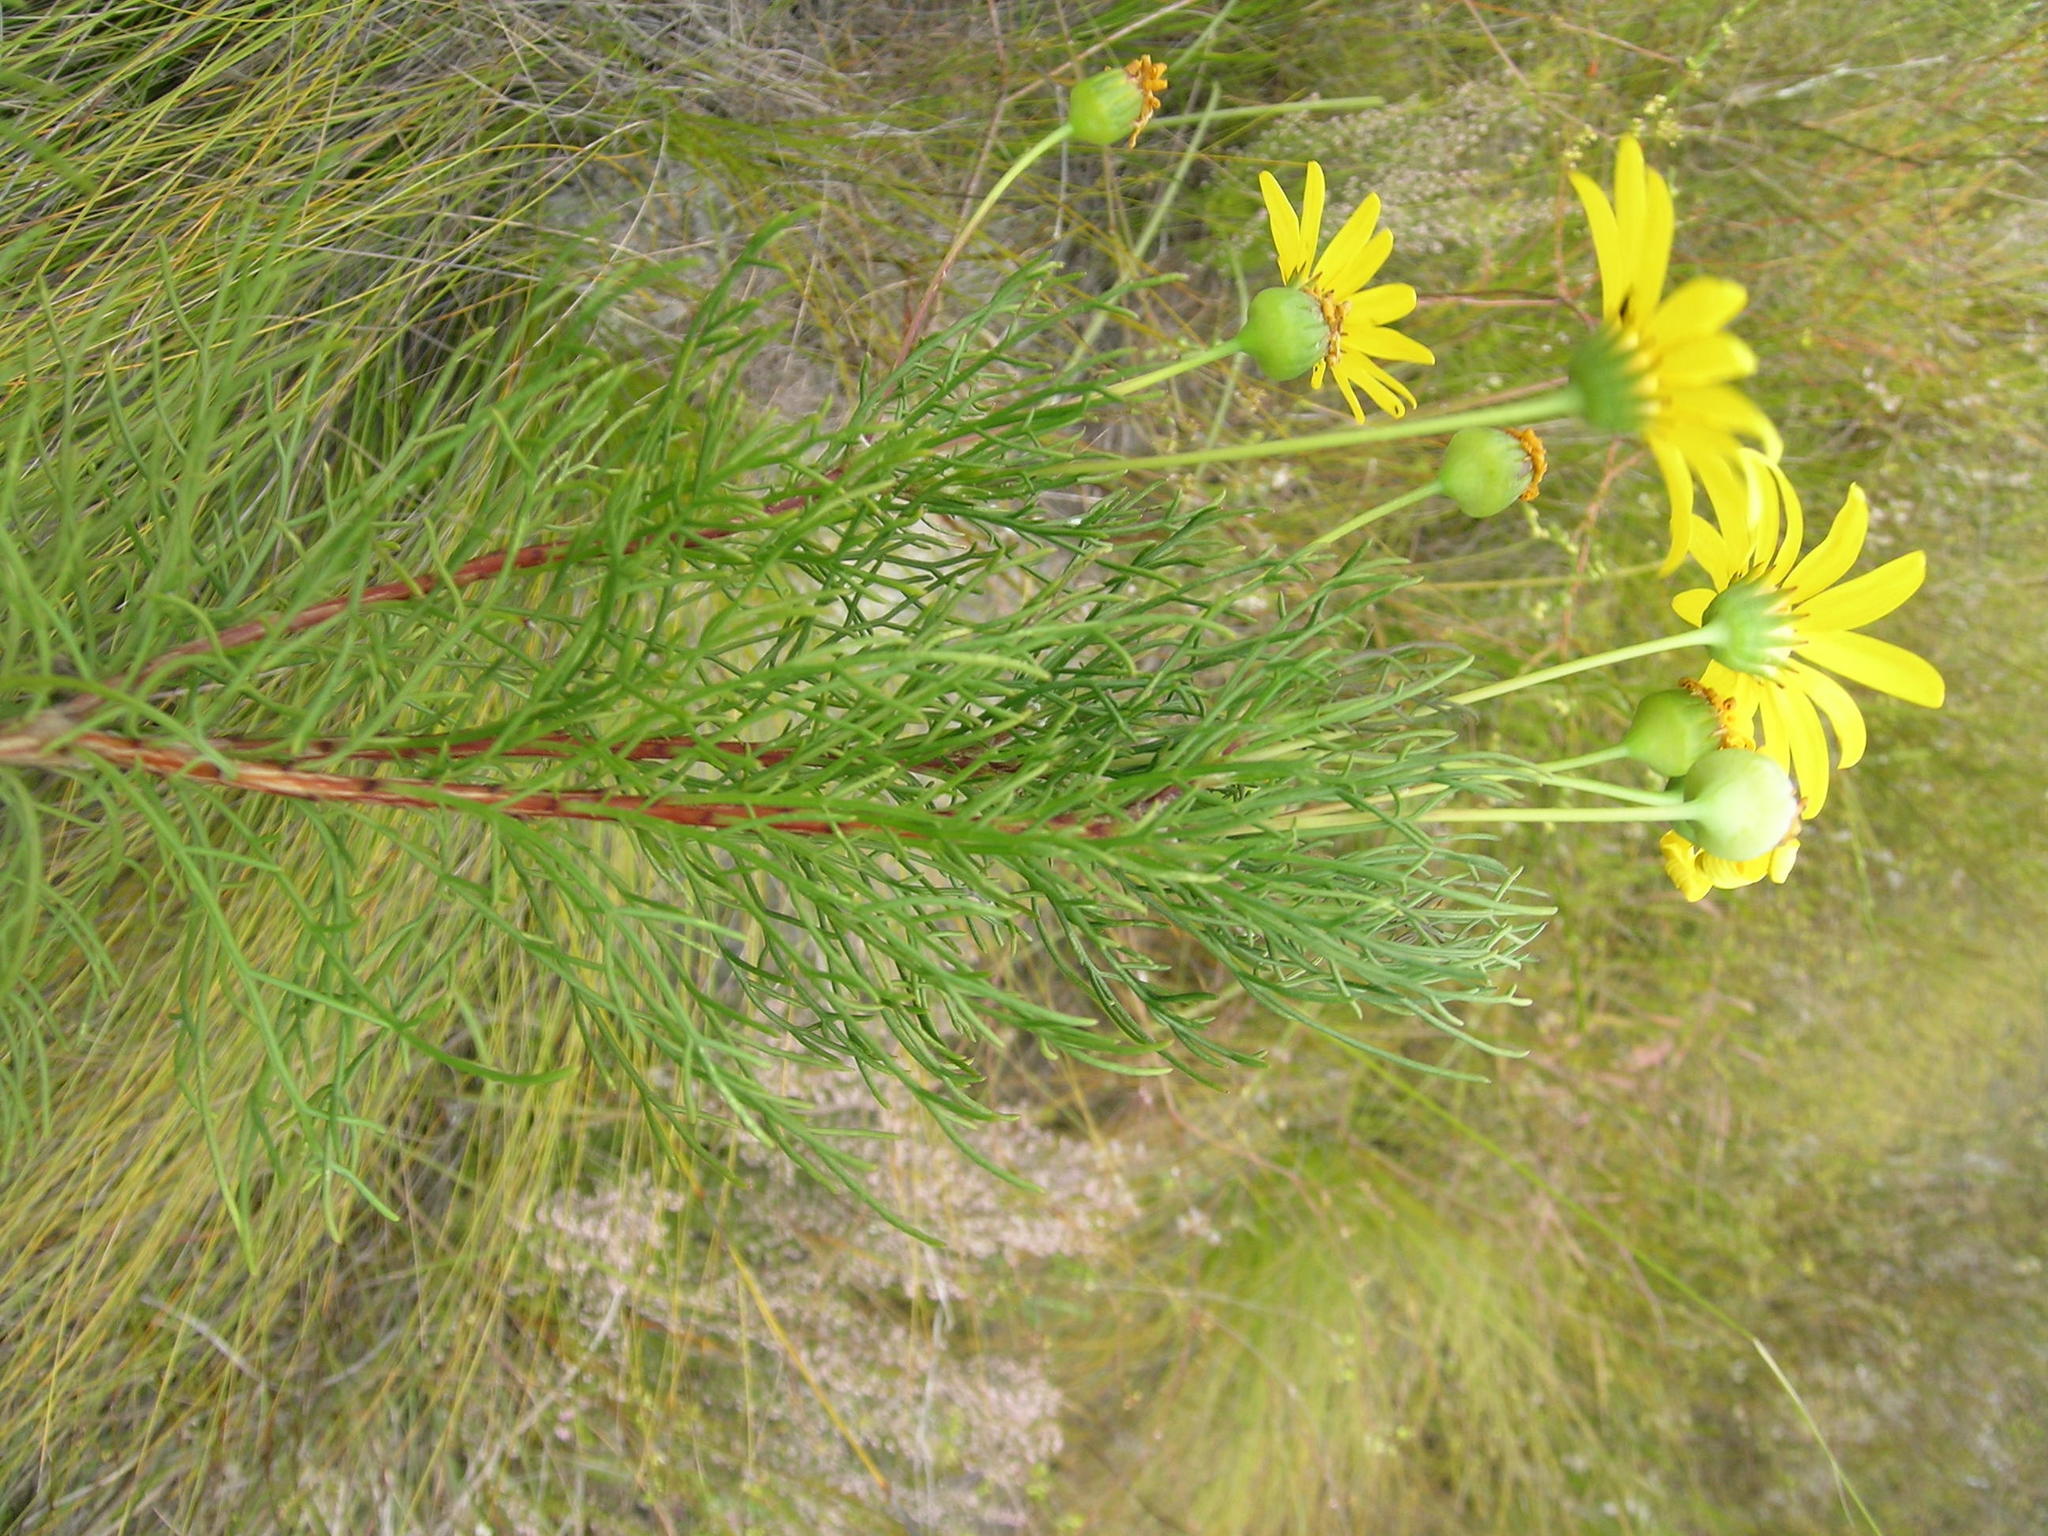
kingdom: Plantae
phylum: Tracheophyta
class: Magnoliopsida
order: Asterales
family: Asteraceae
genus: Euryops
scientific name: Euryops abrotanifolius
